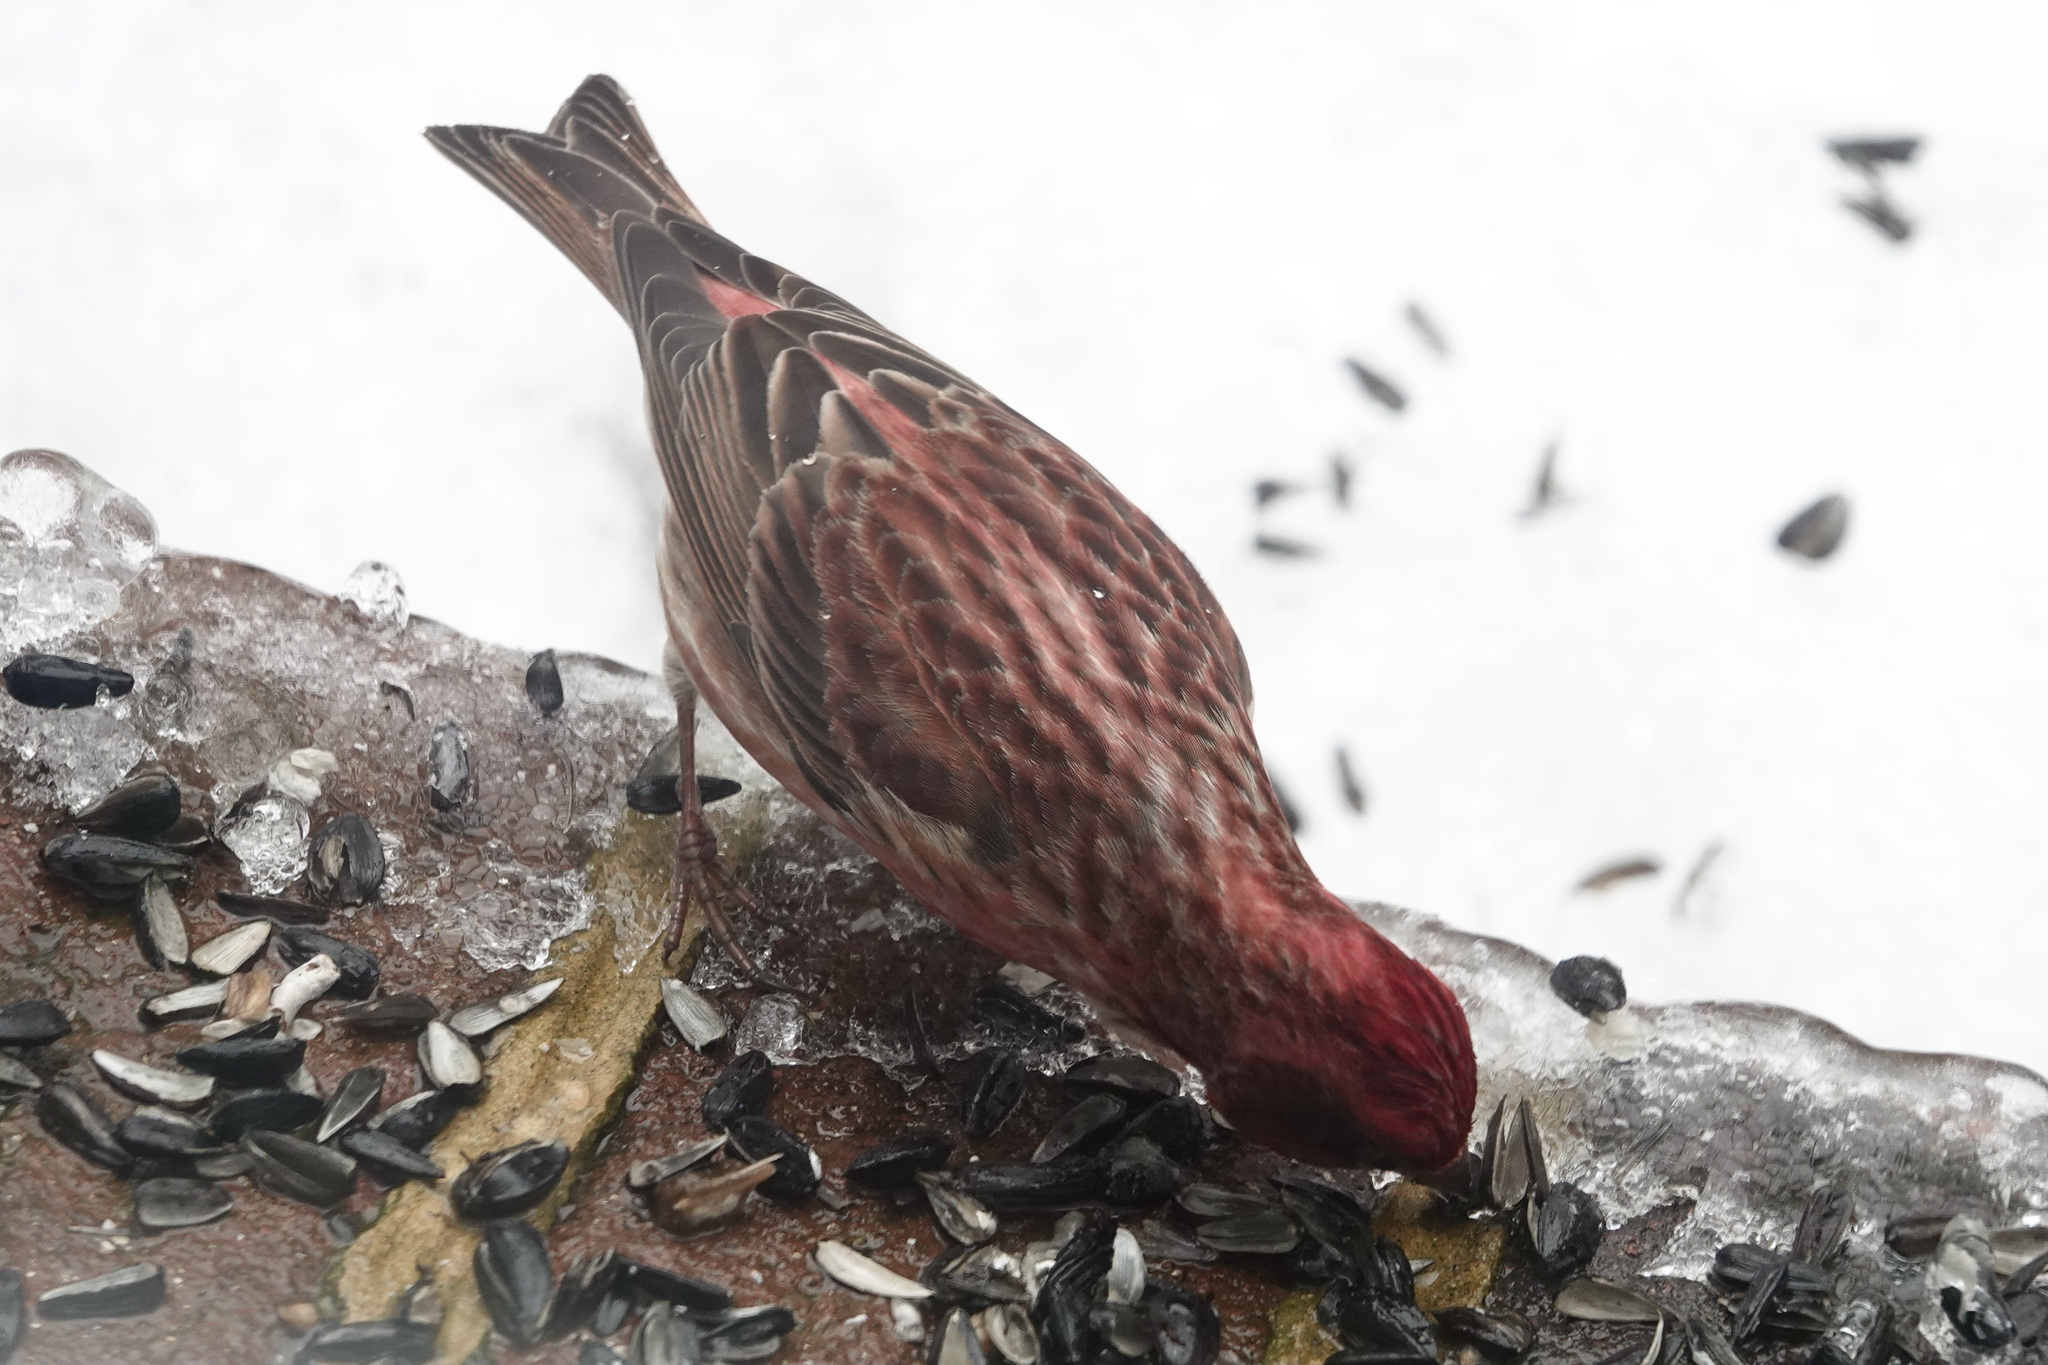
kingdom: Animalia
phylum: Chordata
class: Aves
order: Passeriformes
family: Fringillidae
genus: Haemorhous
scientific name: Haemorhous purpureus
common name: Purple finch
